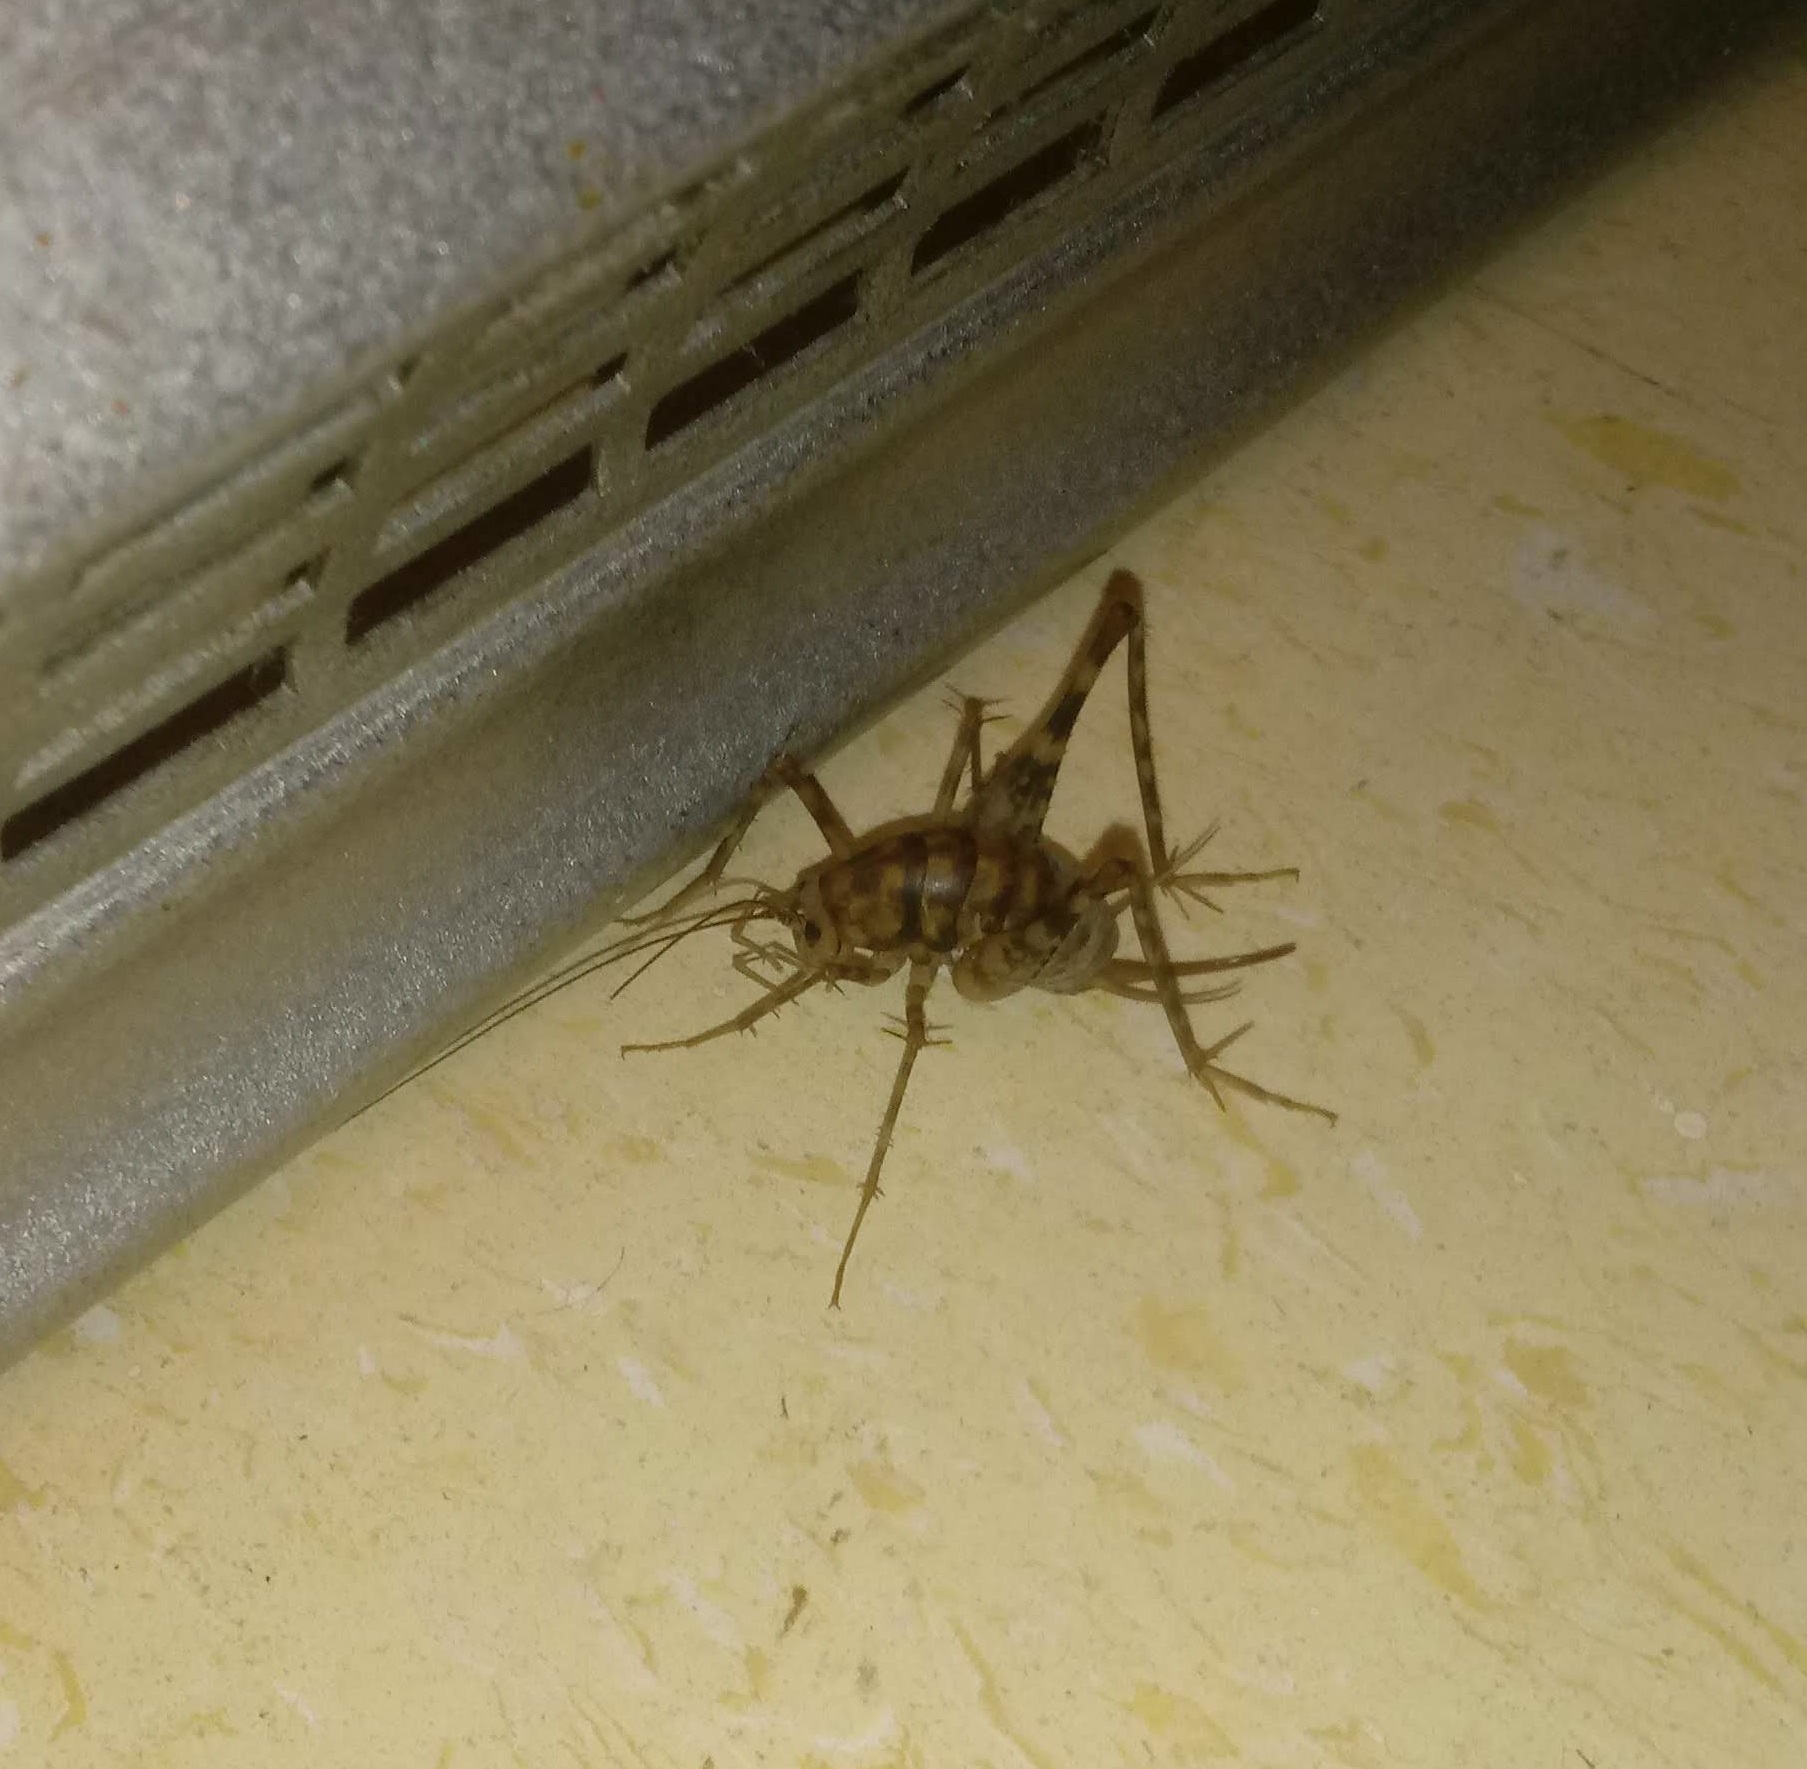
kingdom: Animalia
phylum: Arthropoda
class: Insecta
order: Orthoptera
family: Rhaphidophoridae
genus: Tachycines
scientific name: Tachycines asynamorus
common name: Greenhouse camel cricket
